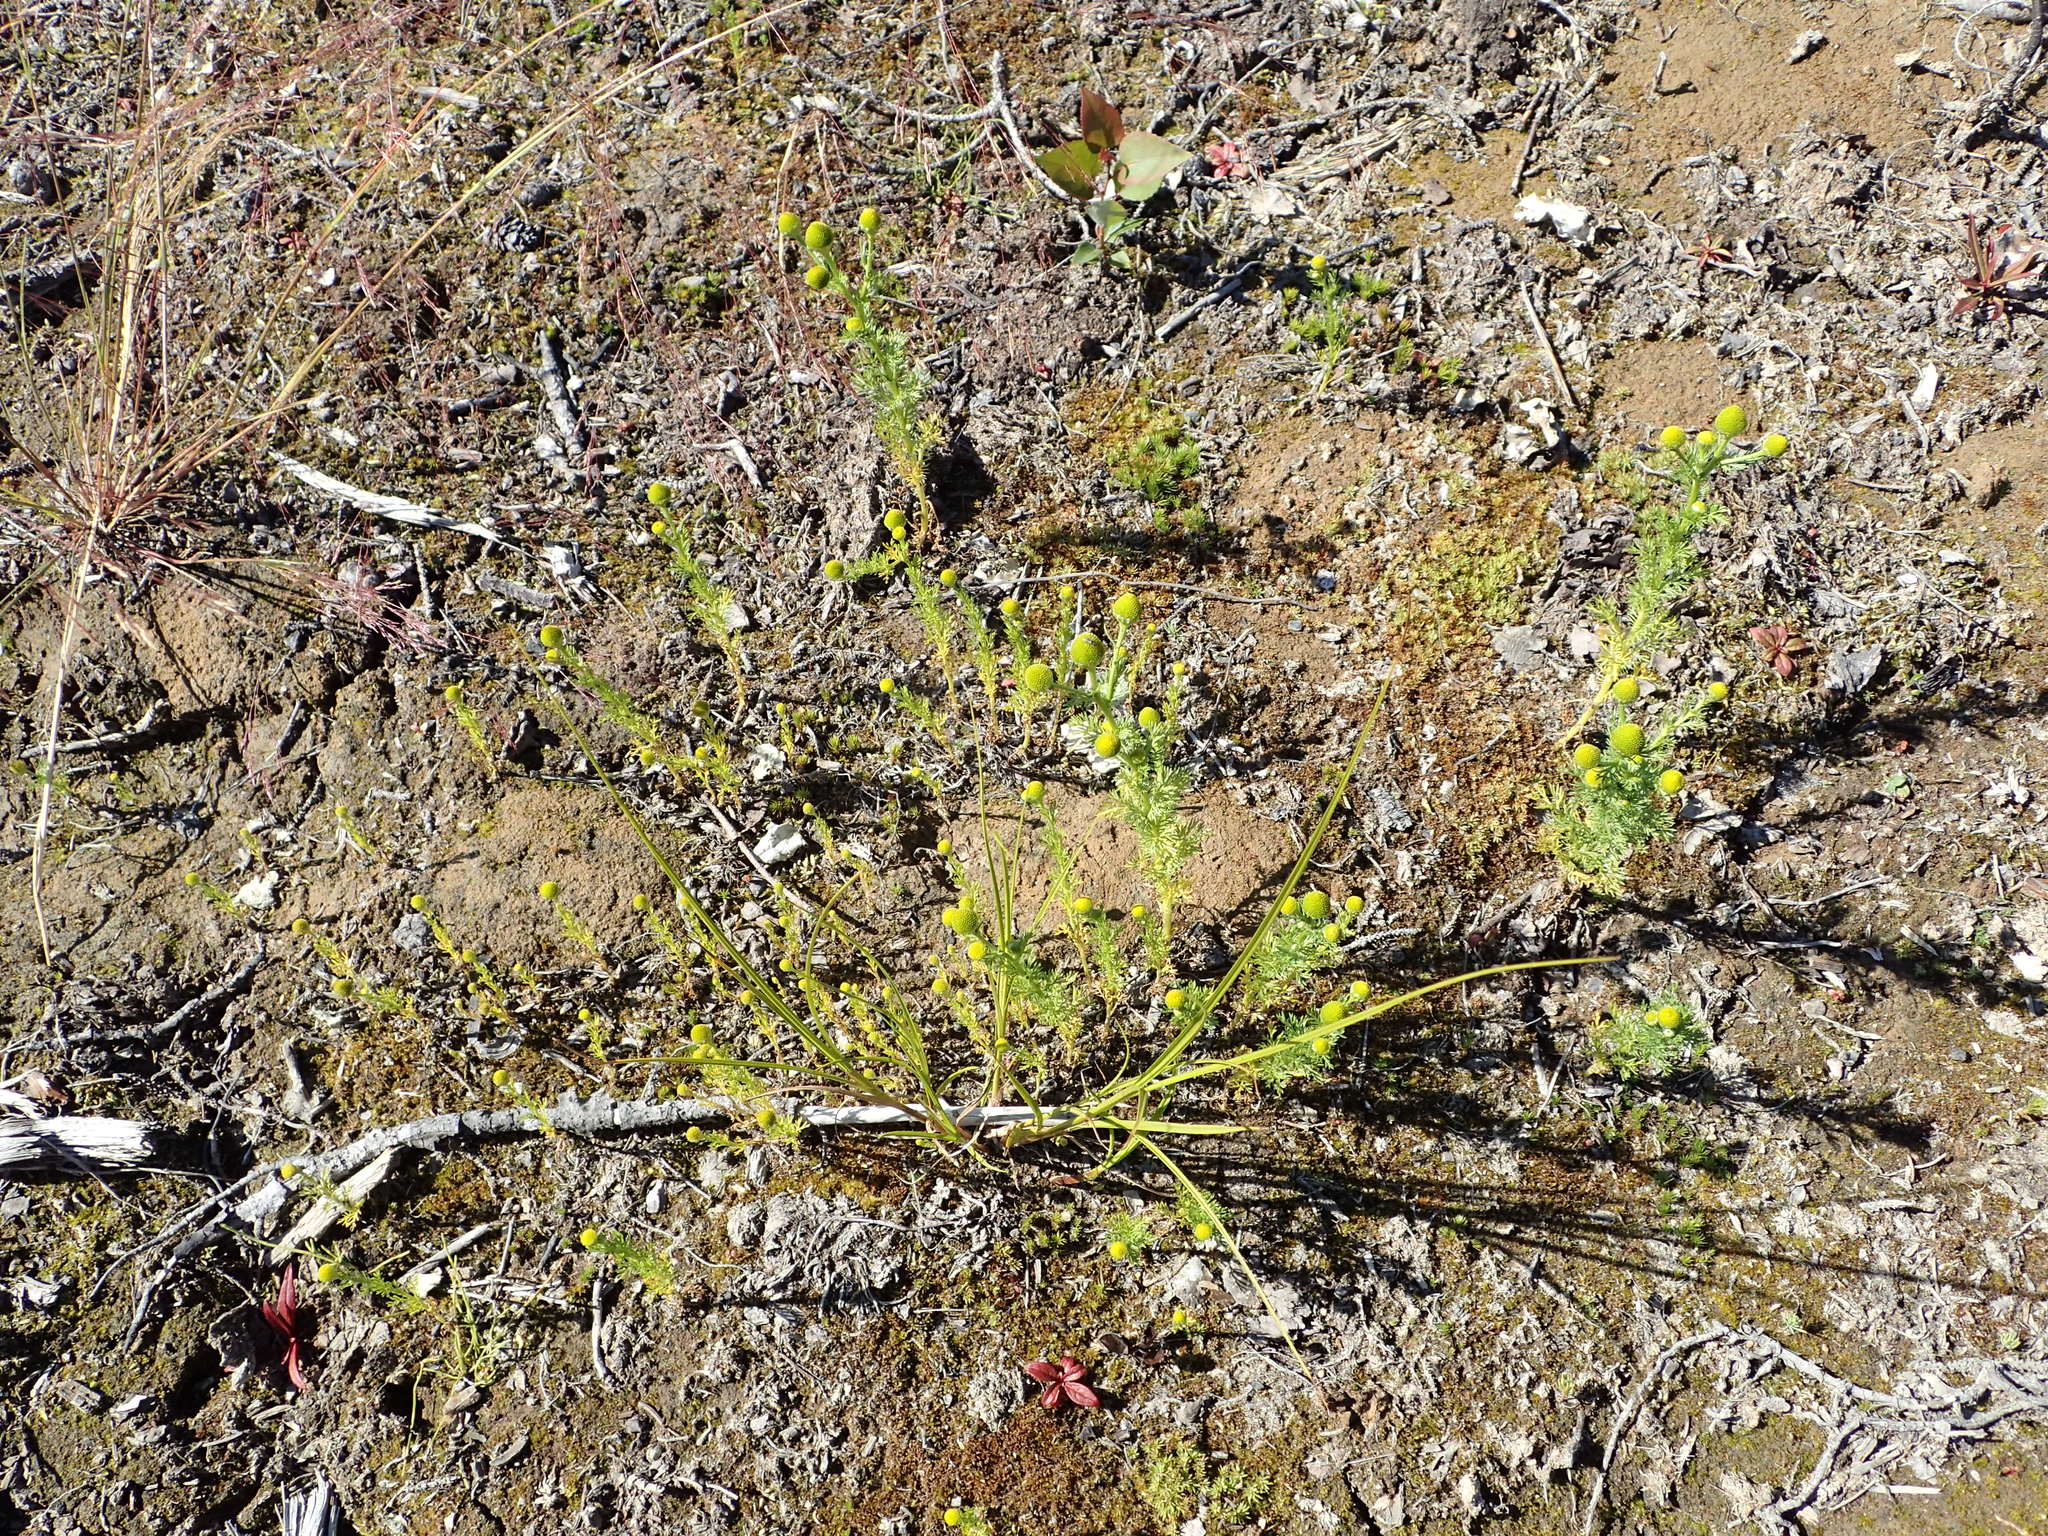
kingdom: Plantae
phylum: Tracheophyta
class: Magnoliopsida
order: Asterales
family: Asteraceae
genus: Matricaria
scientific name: Matricaria discoidea
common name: Disc mayweed
